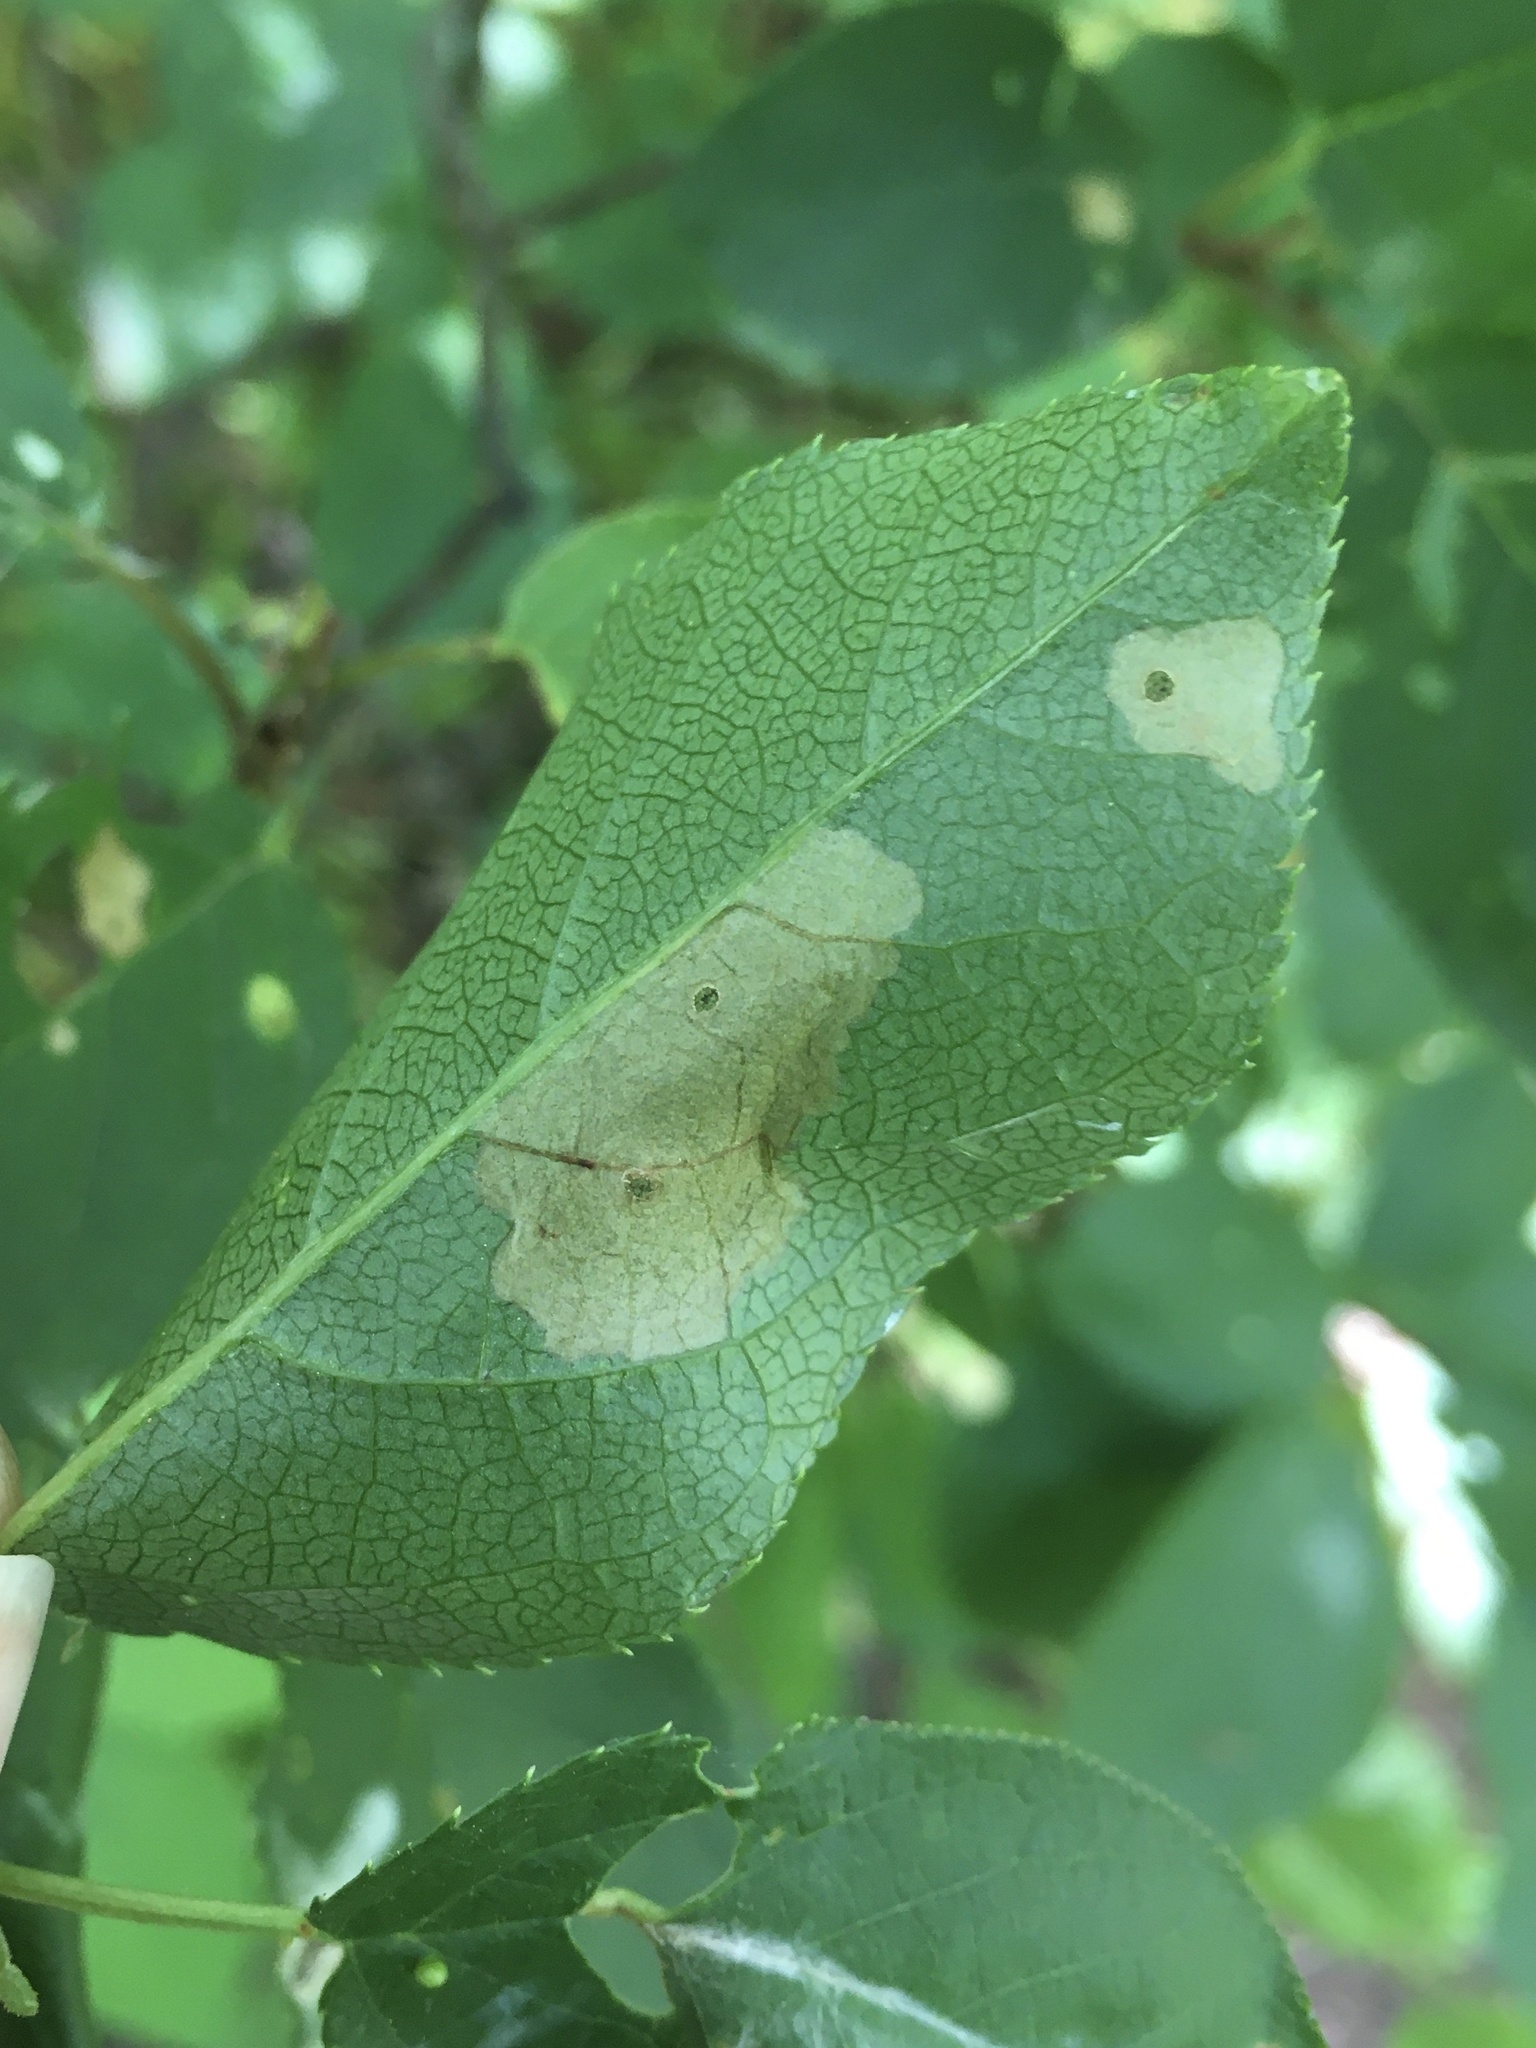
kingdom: Animalia
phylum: Arthropoda
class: Insecta
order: Lepidoptera
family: Coleophoridae
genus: Coleophora
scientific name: Coleophora pruniella
